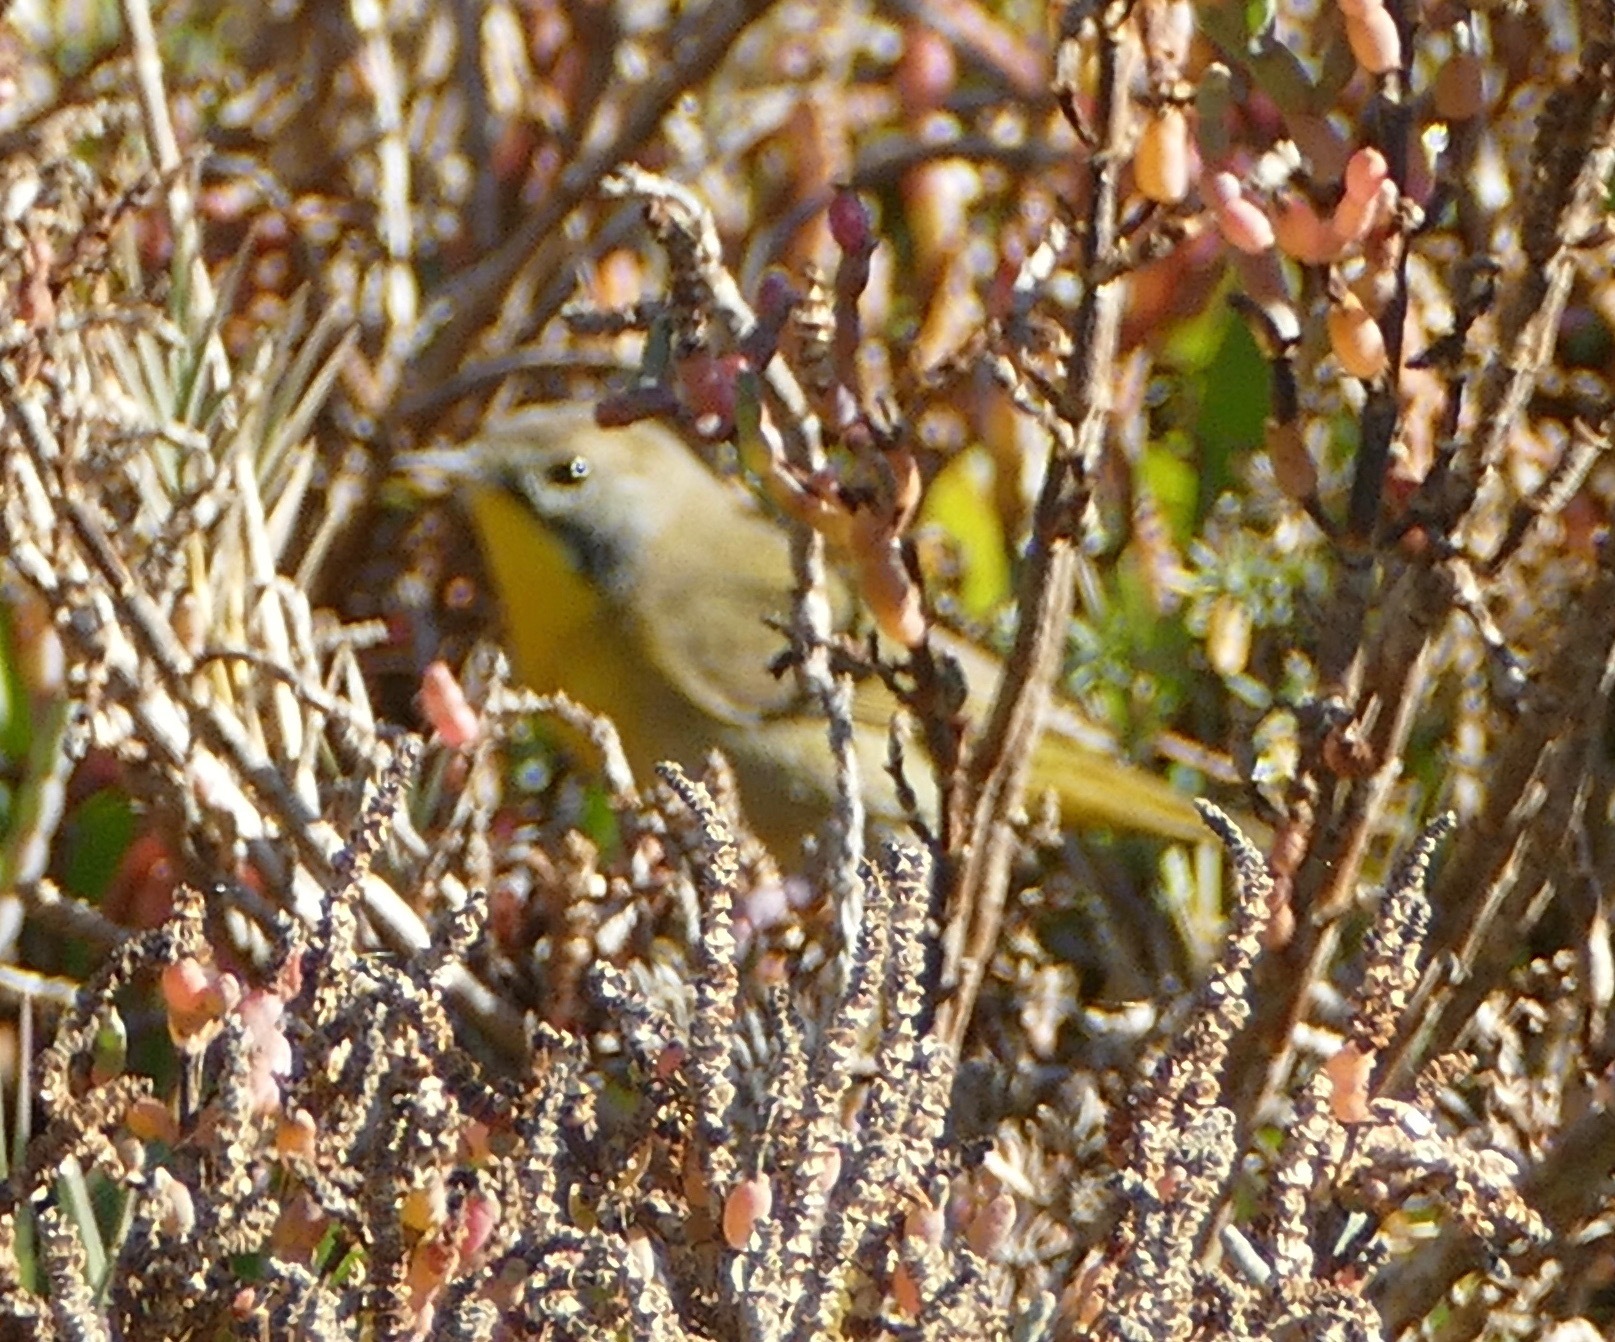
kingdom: Animalia
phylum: Chordata
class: Aves
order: Passeriformes
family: Parulidae
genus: Geothlypis
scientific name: Geothlypis trichas
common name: Common yellowthroat
